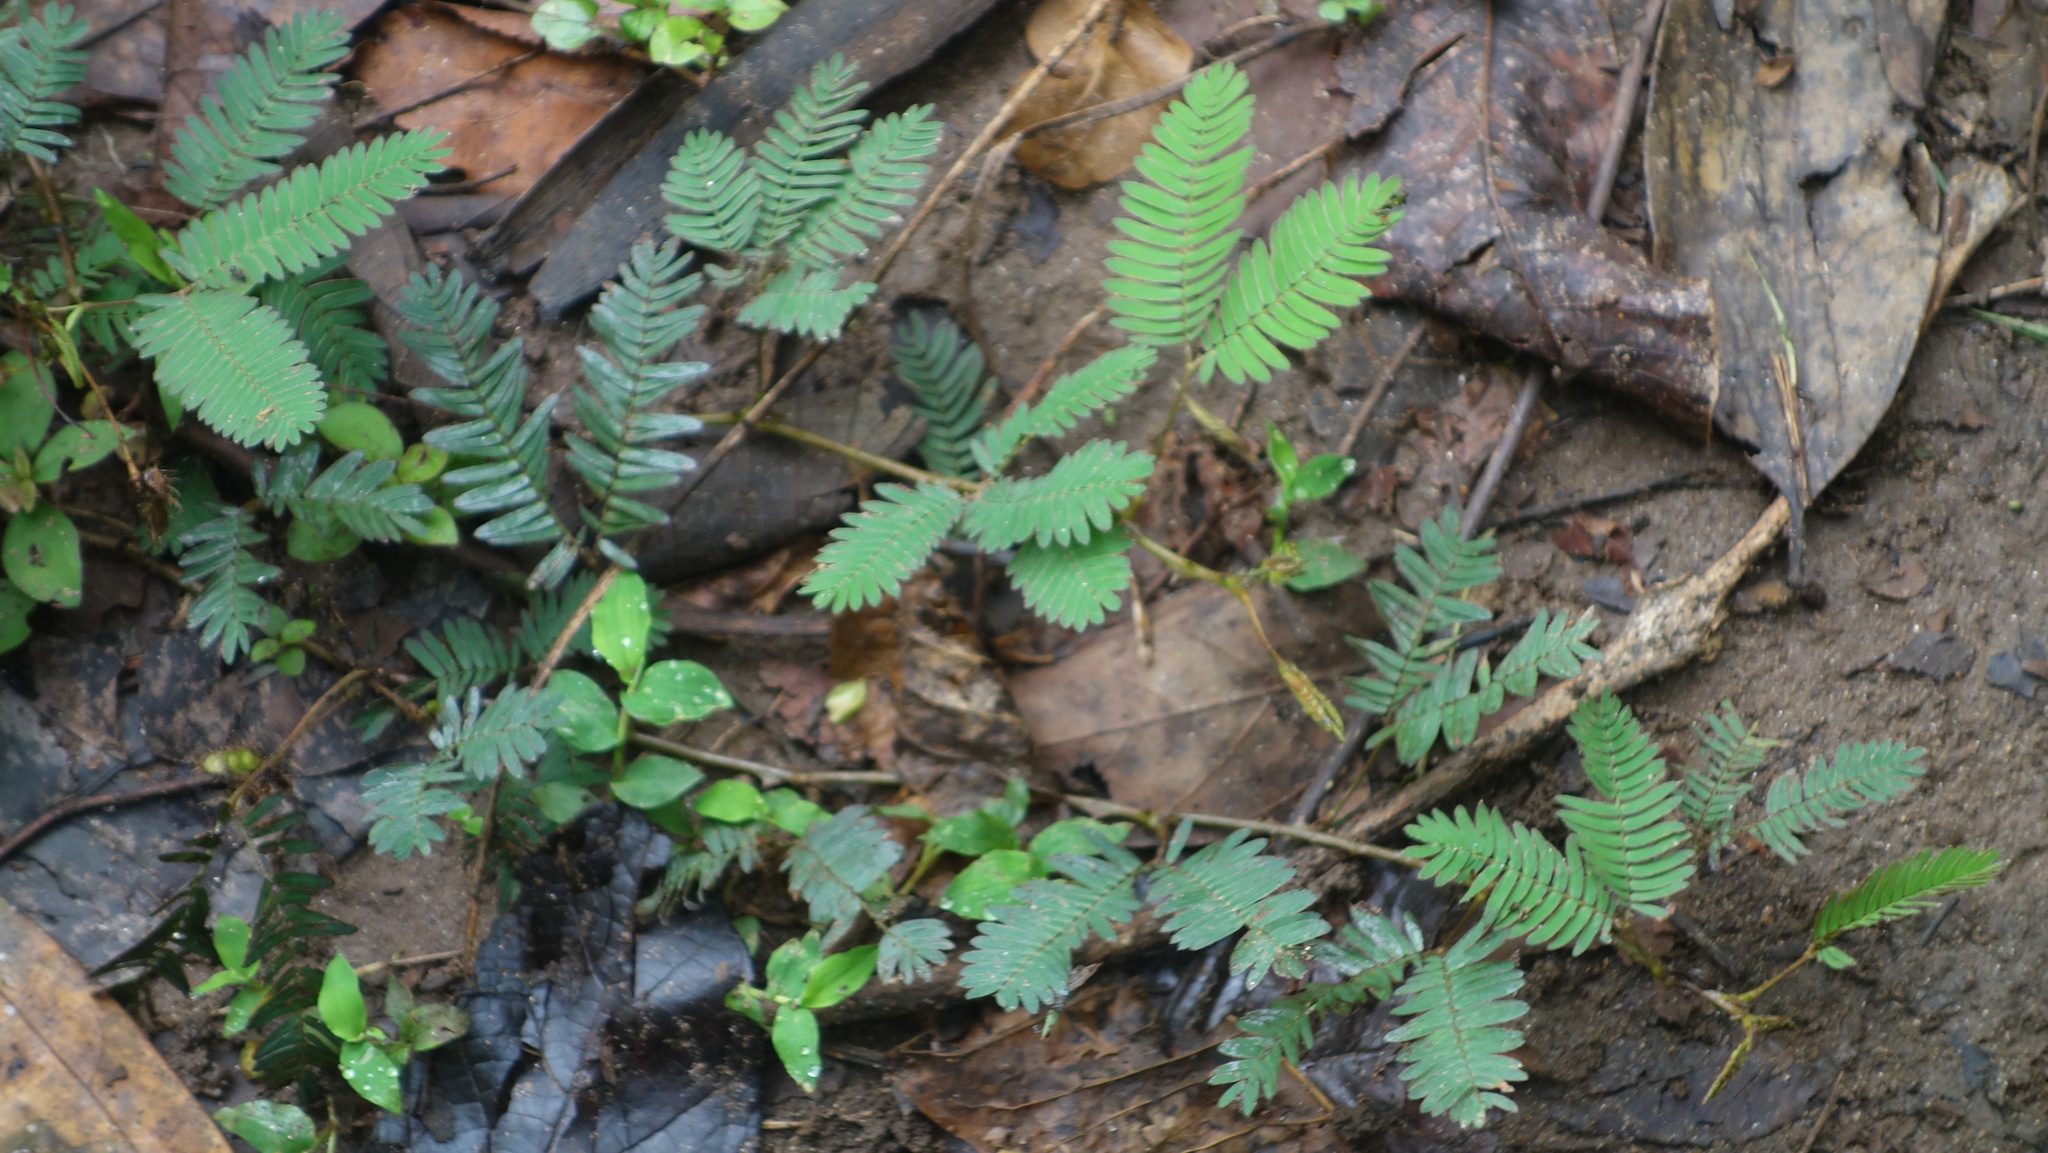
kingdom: Plantae
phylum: Tracheophyta
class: Magnoliopsida
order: Fabales
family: Fabaceae
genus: Mimosa
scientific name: Mimosa pudica
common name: Sensitive plant
